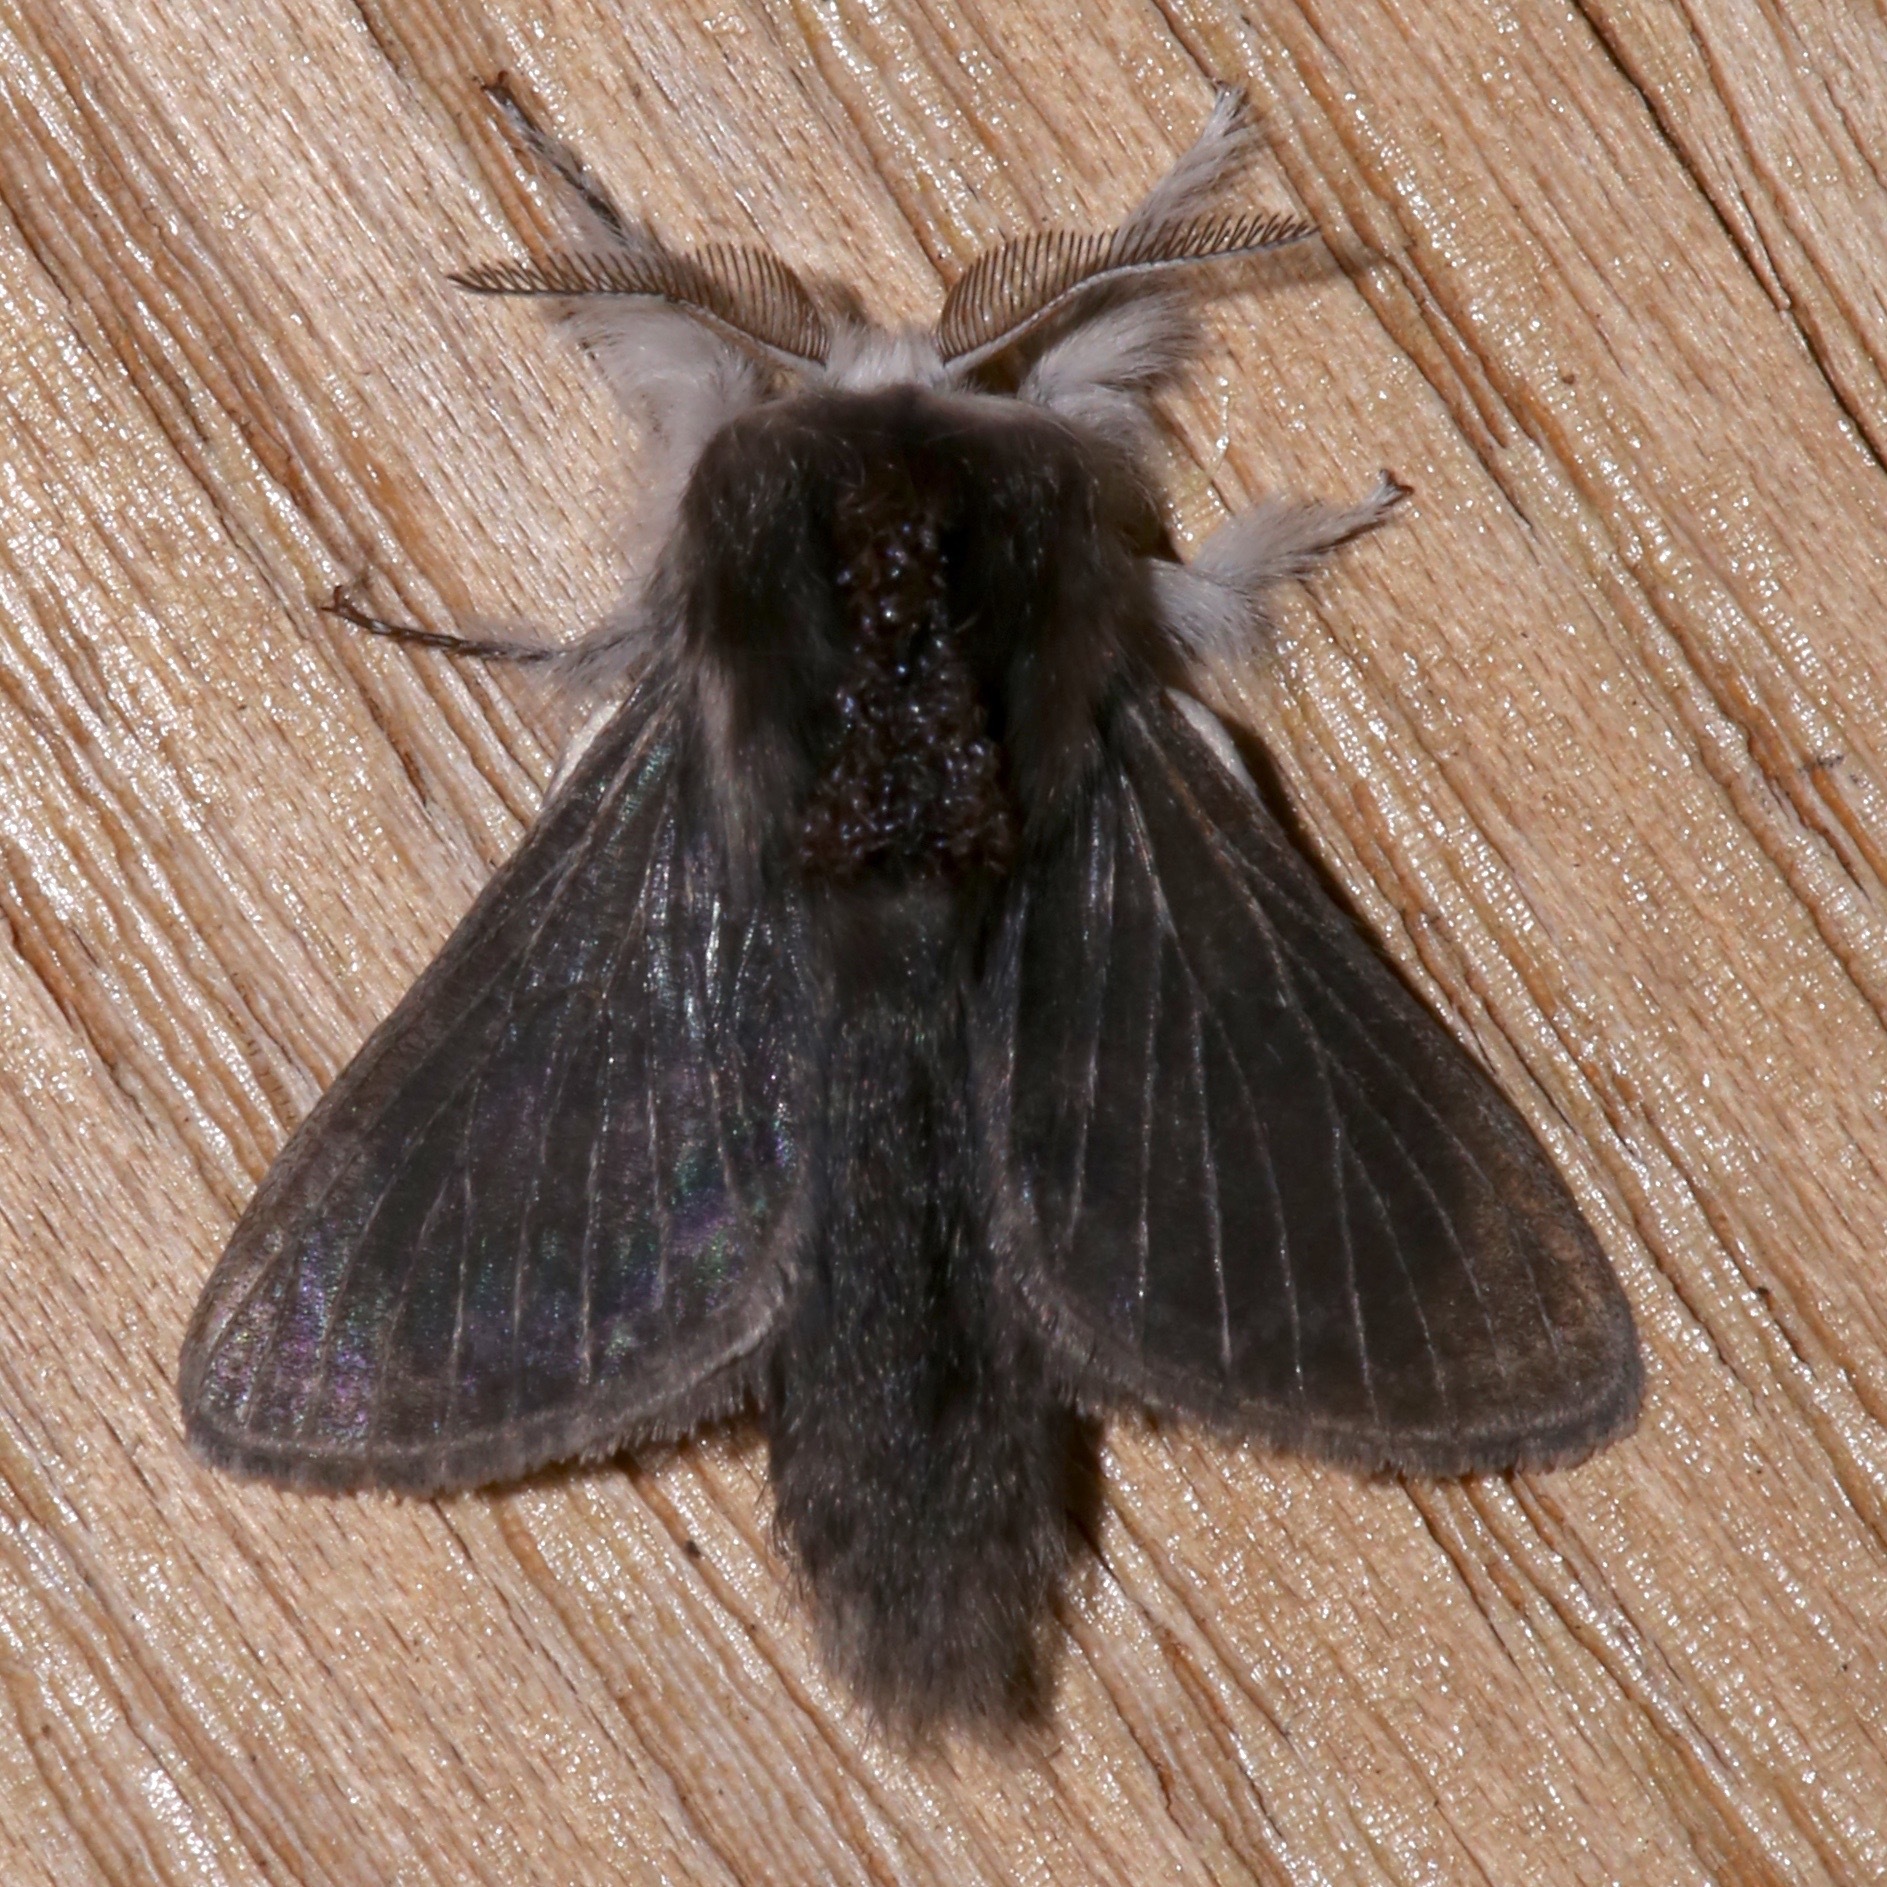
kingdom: Animalia
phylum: Arthropoda
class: Insecta
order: Lepidoptera
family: Lasiocampidae
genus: Tolype
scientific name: Tolype laricis
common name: Larch tolype moth
